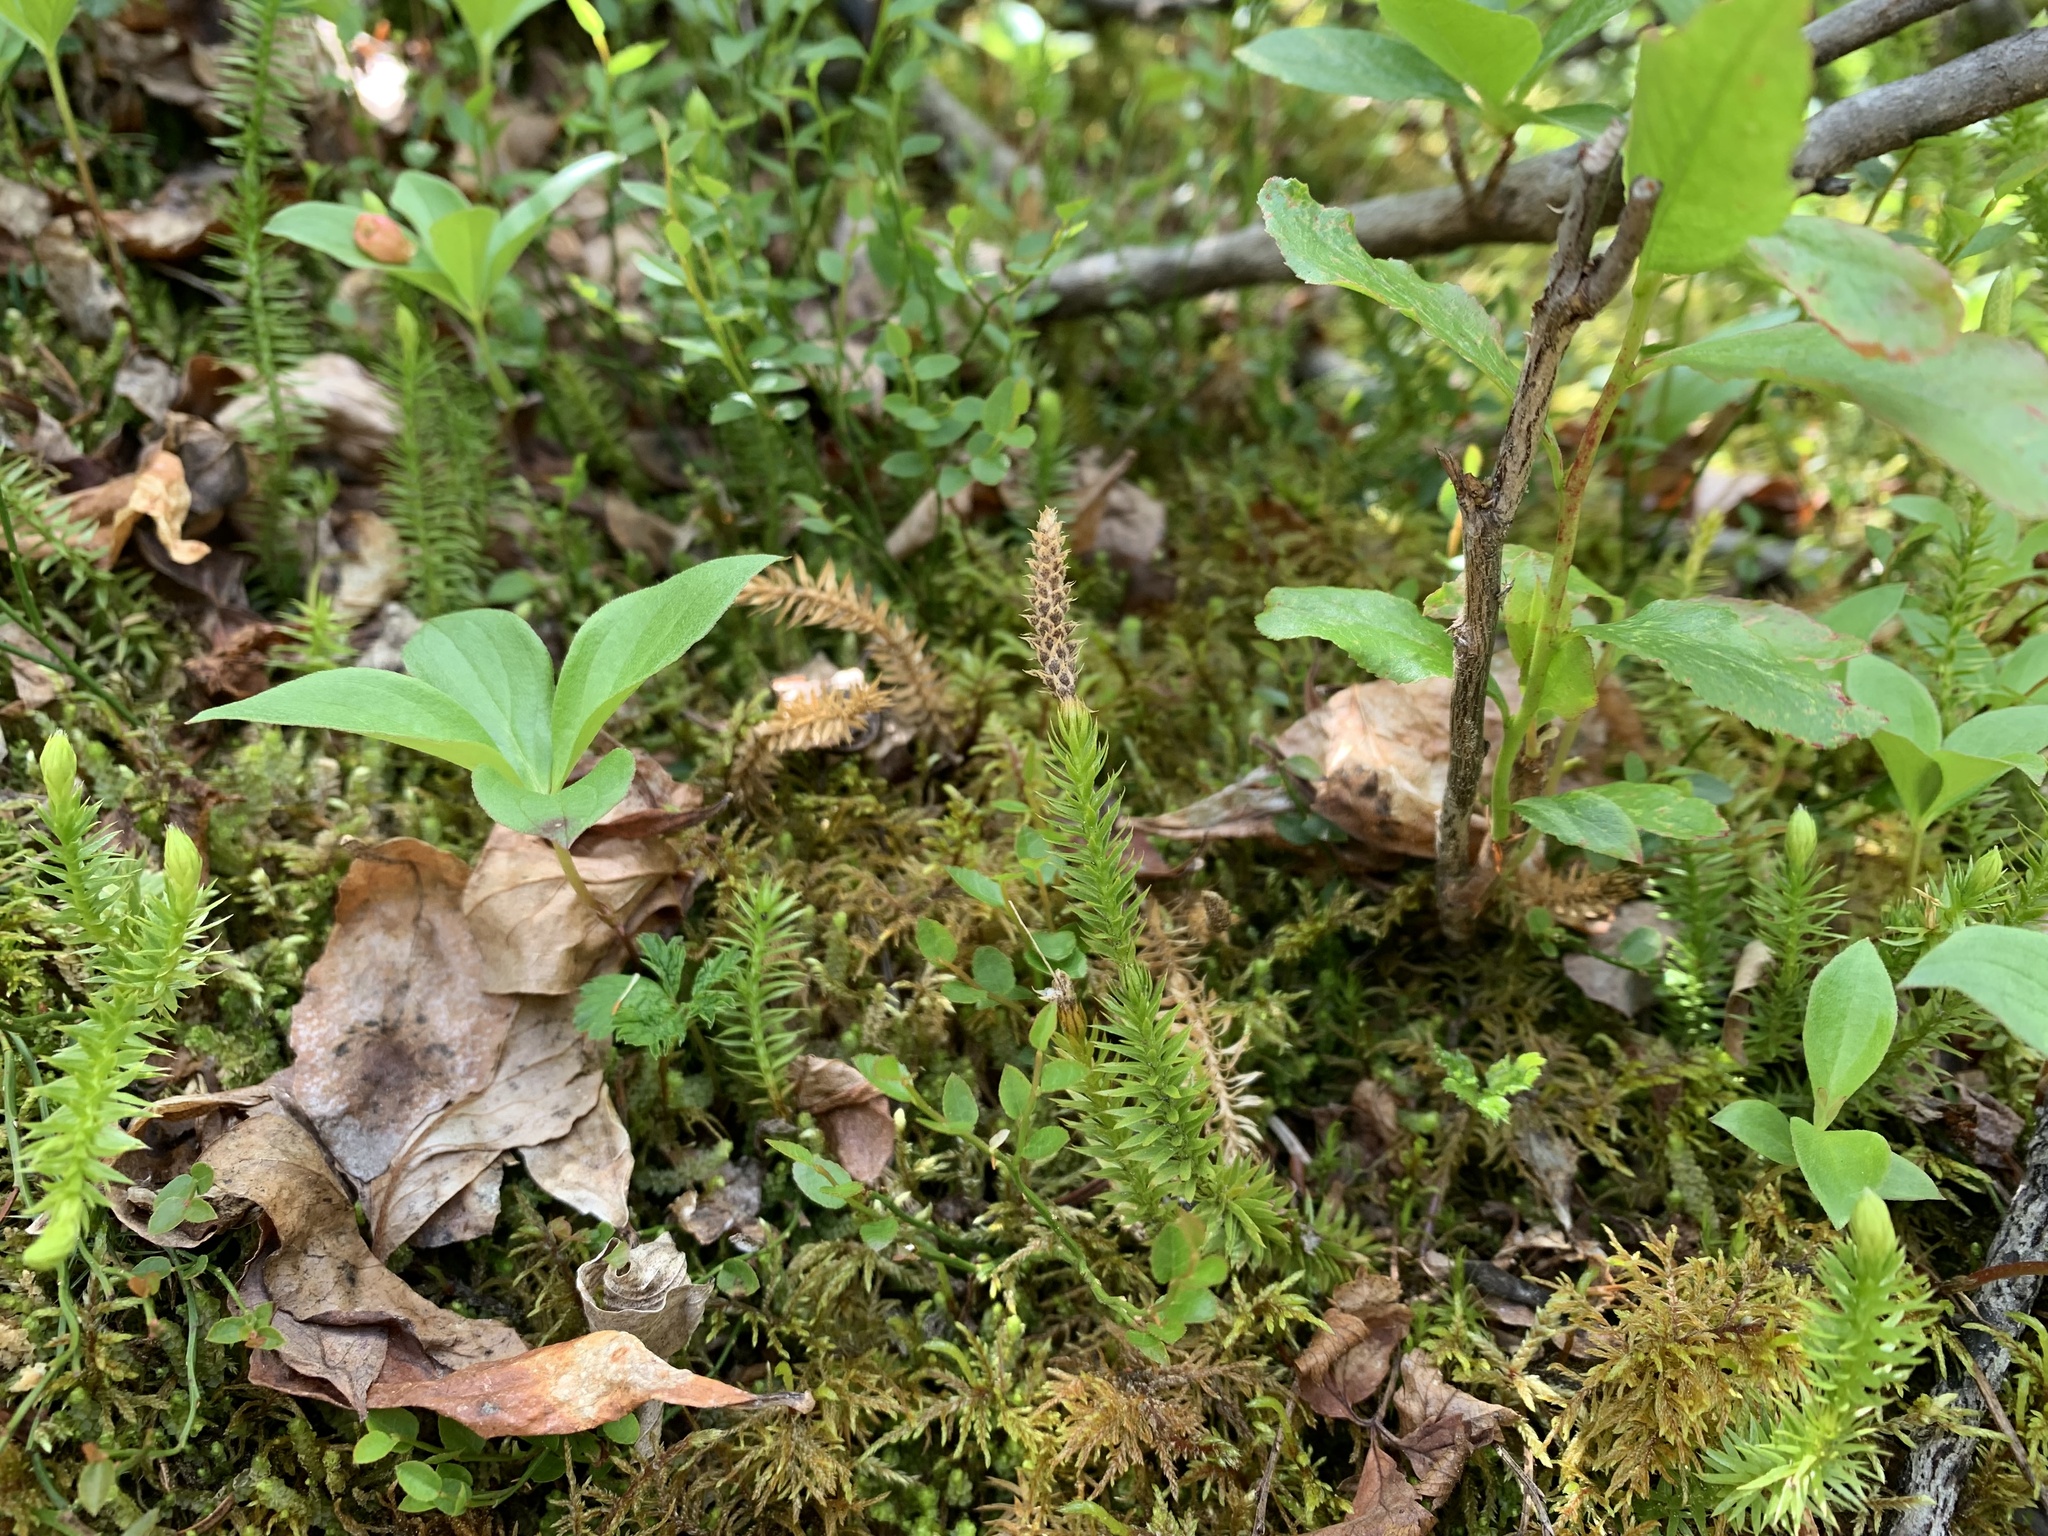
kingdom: Plantae
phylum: Tracheophyta
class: Lycopodiopsida
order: Lycopodiales
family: Lycopodiaceae
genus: Spinulum
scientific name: Spinulum annotinum
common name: Interrupted club-moss
